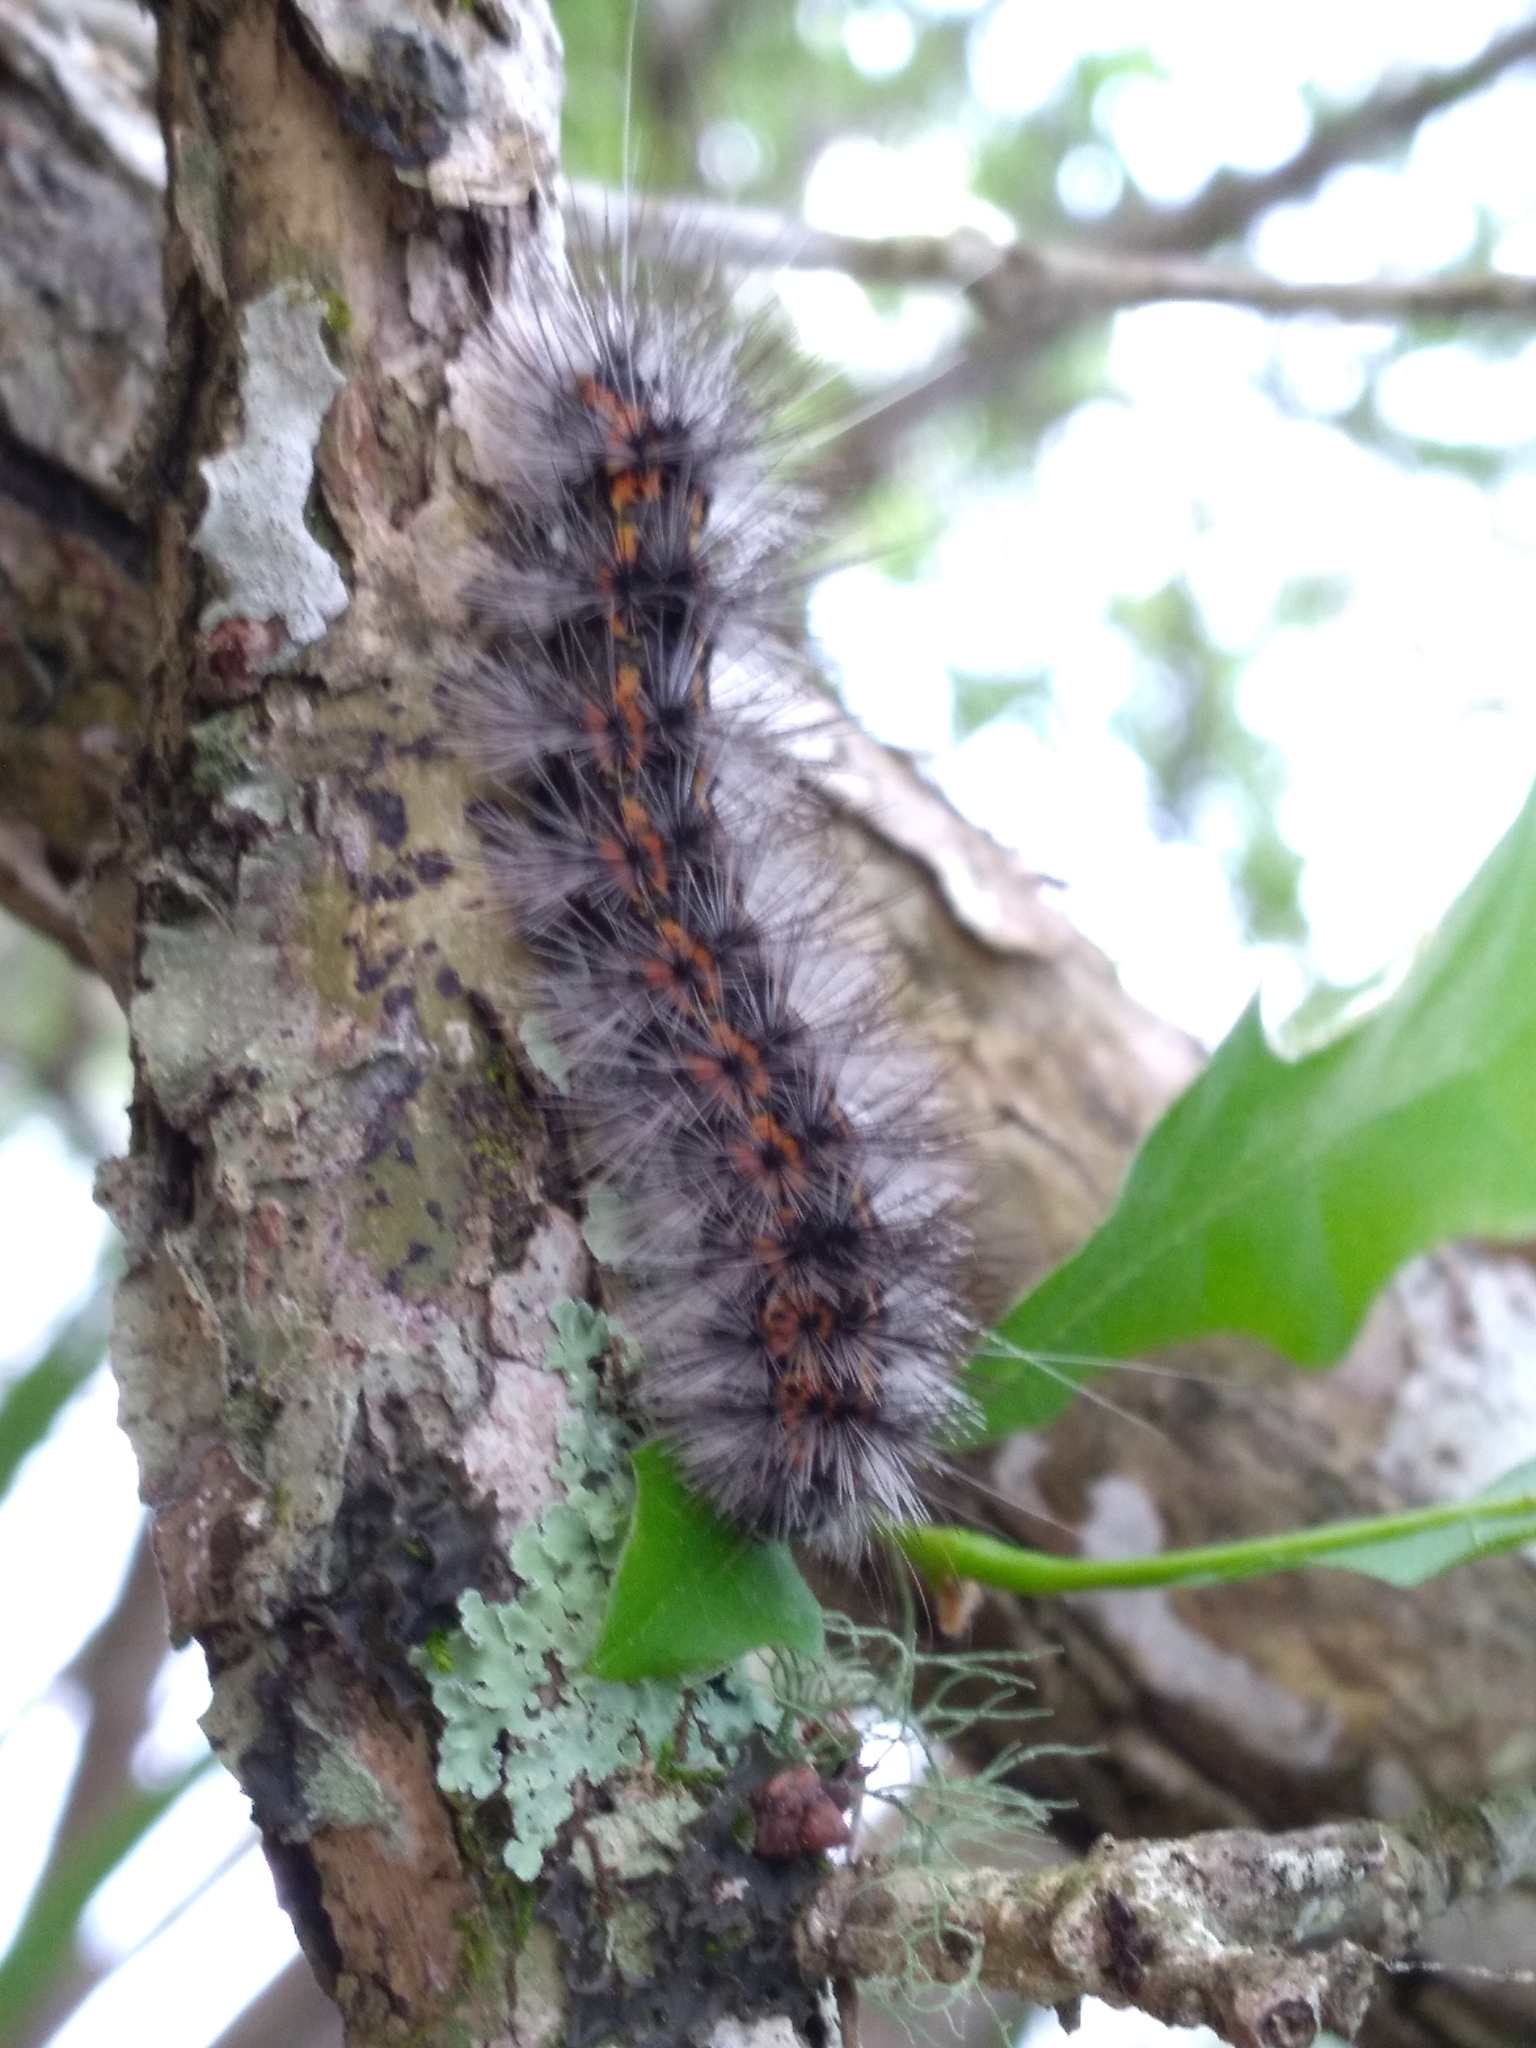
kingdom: Animalia
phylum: Arthropoda
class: Insecta
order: Lepidoptera
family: Erebidae
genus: Spilosoma
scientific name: Spilosoma dubia
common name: Dubious tiger moth
